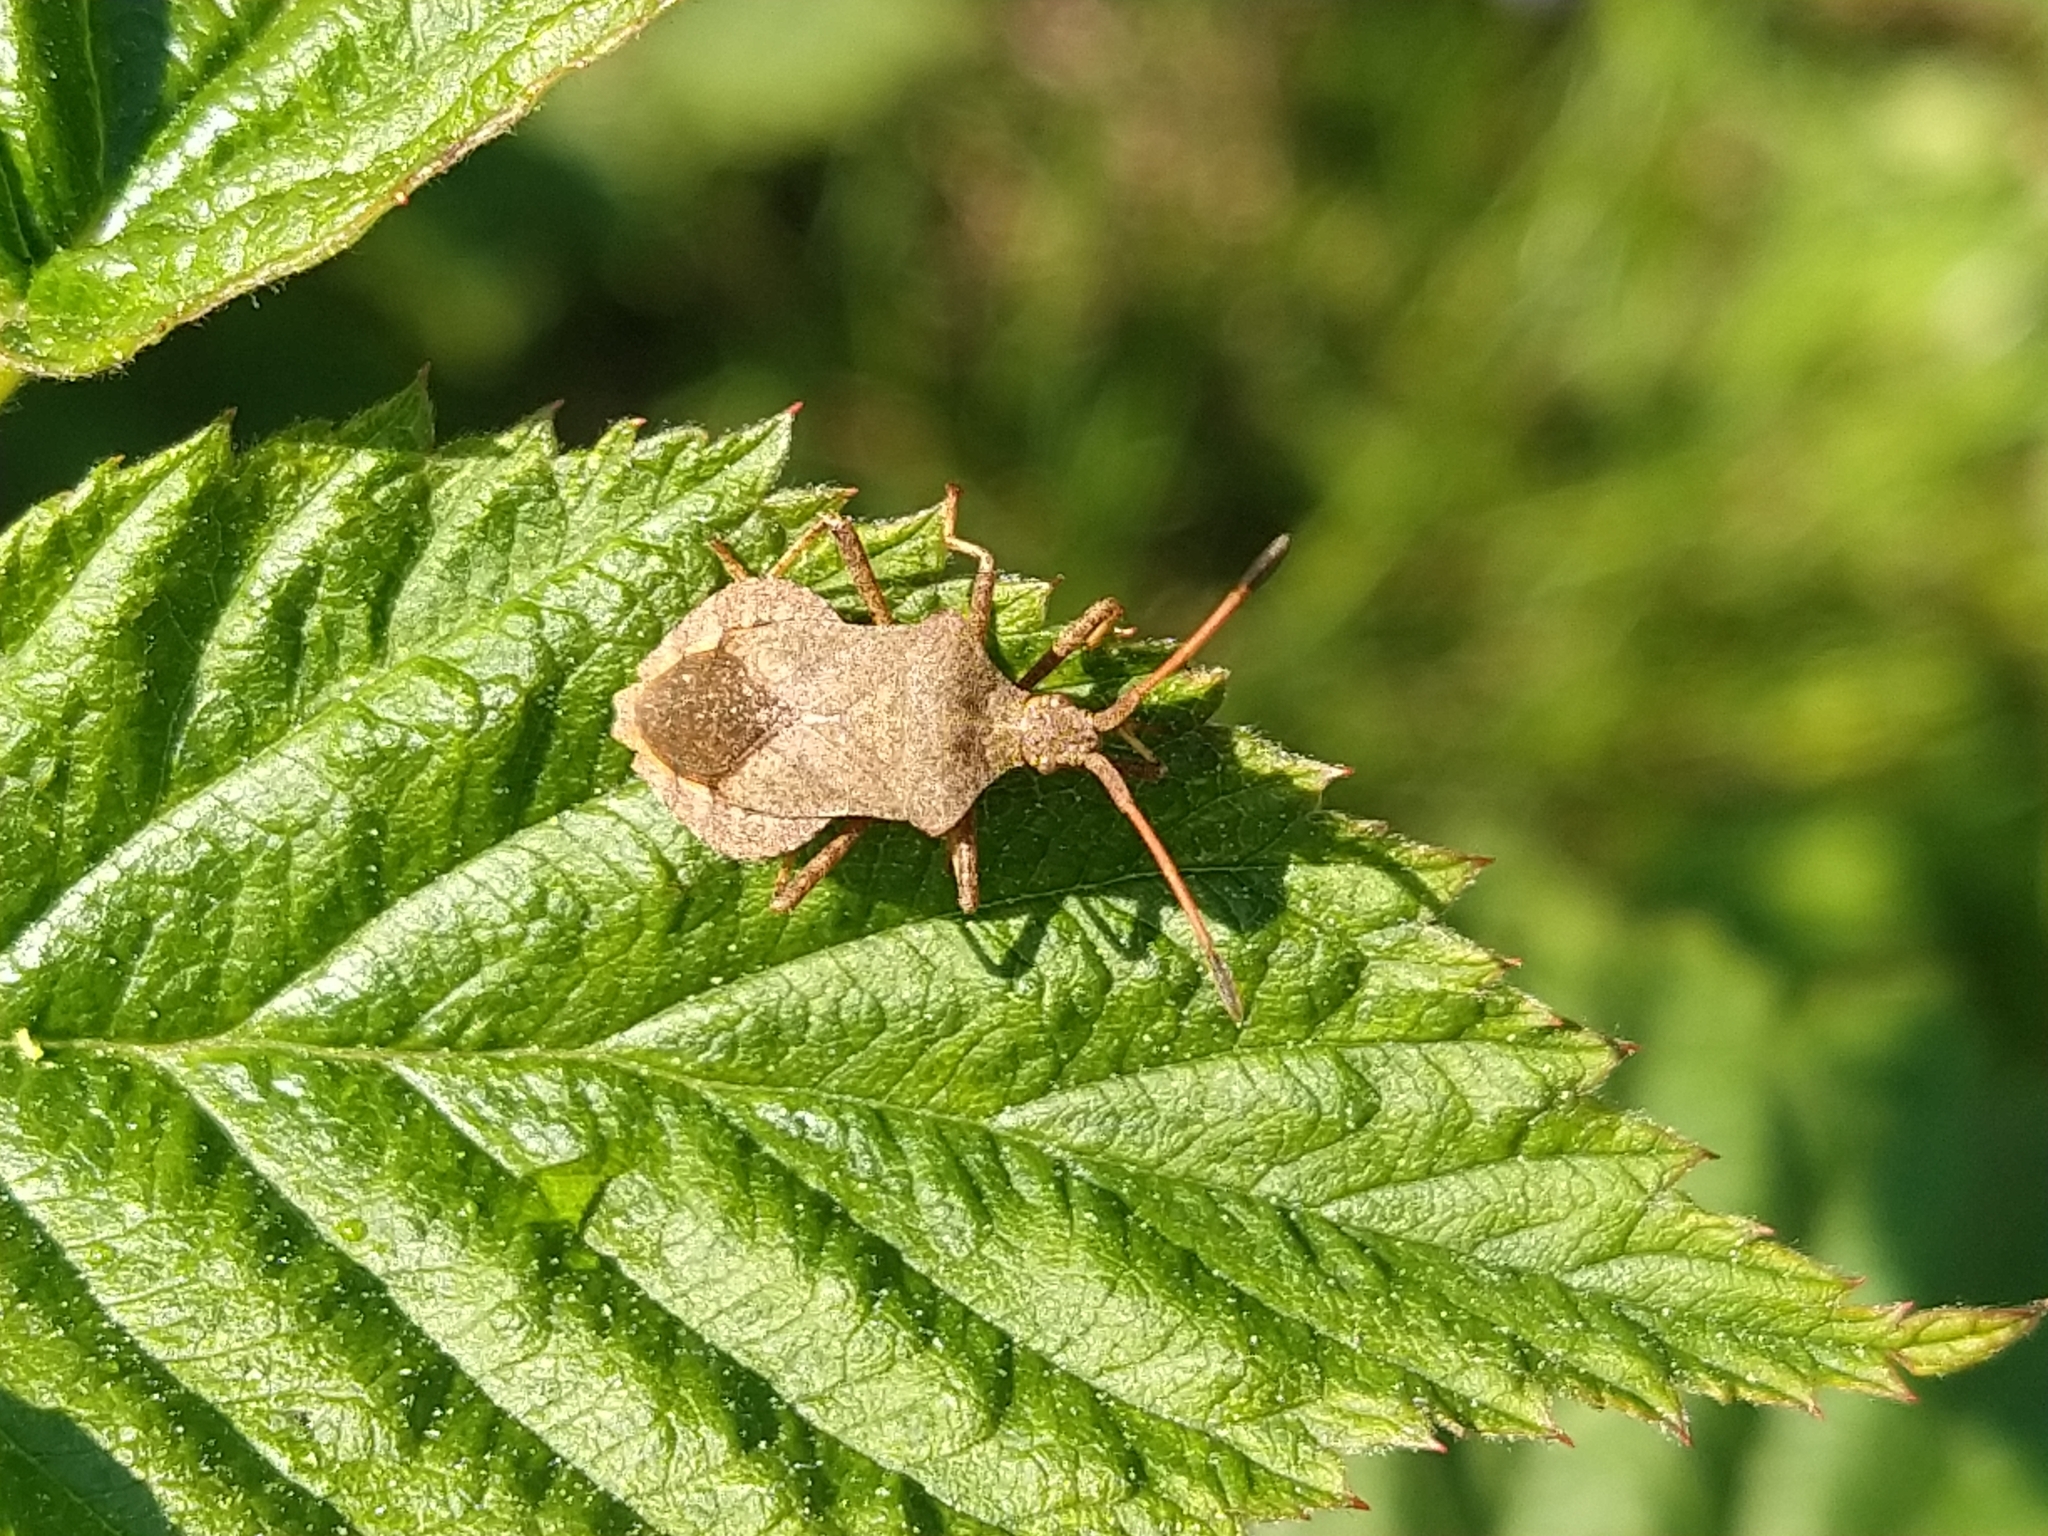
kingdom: Animalia
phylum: Arthropoda
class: Insecta
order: Hemiptera
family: Coreidae
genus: Coreus
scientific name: Coreus marginatus
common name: Dock bug
